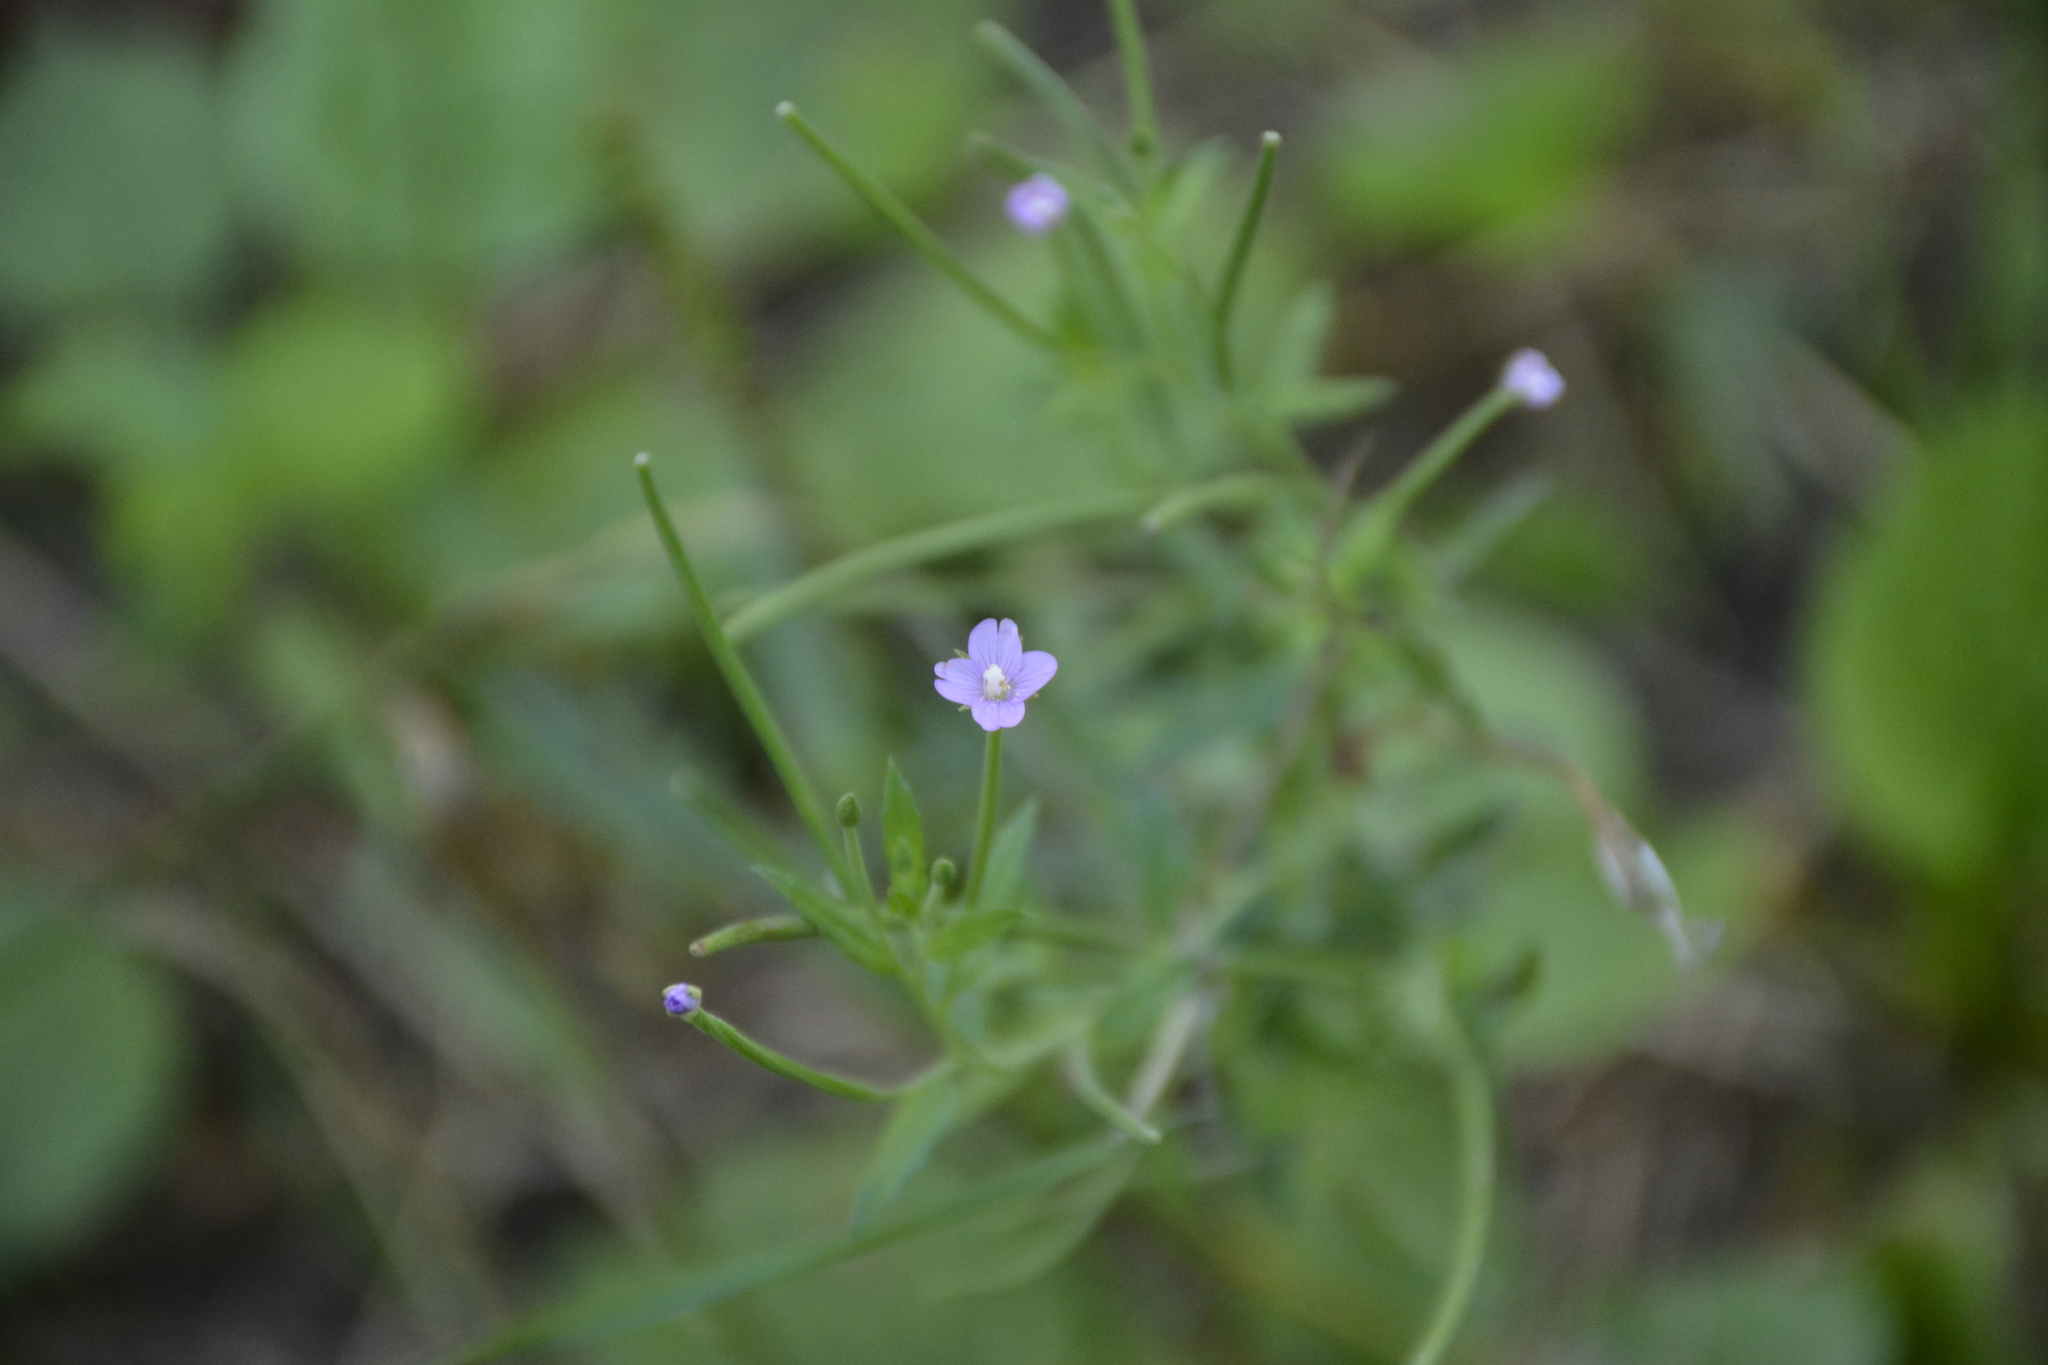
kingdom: Plantae
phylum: Tracheophyta
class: Magnoliopsida
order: Myrtales
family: Onagraceae
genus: Epilobium
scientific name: Epilobium ciliatum
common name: American willowherb
